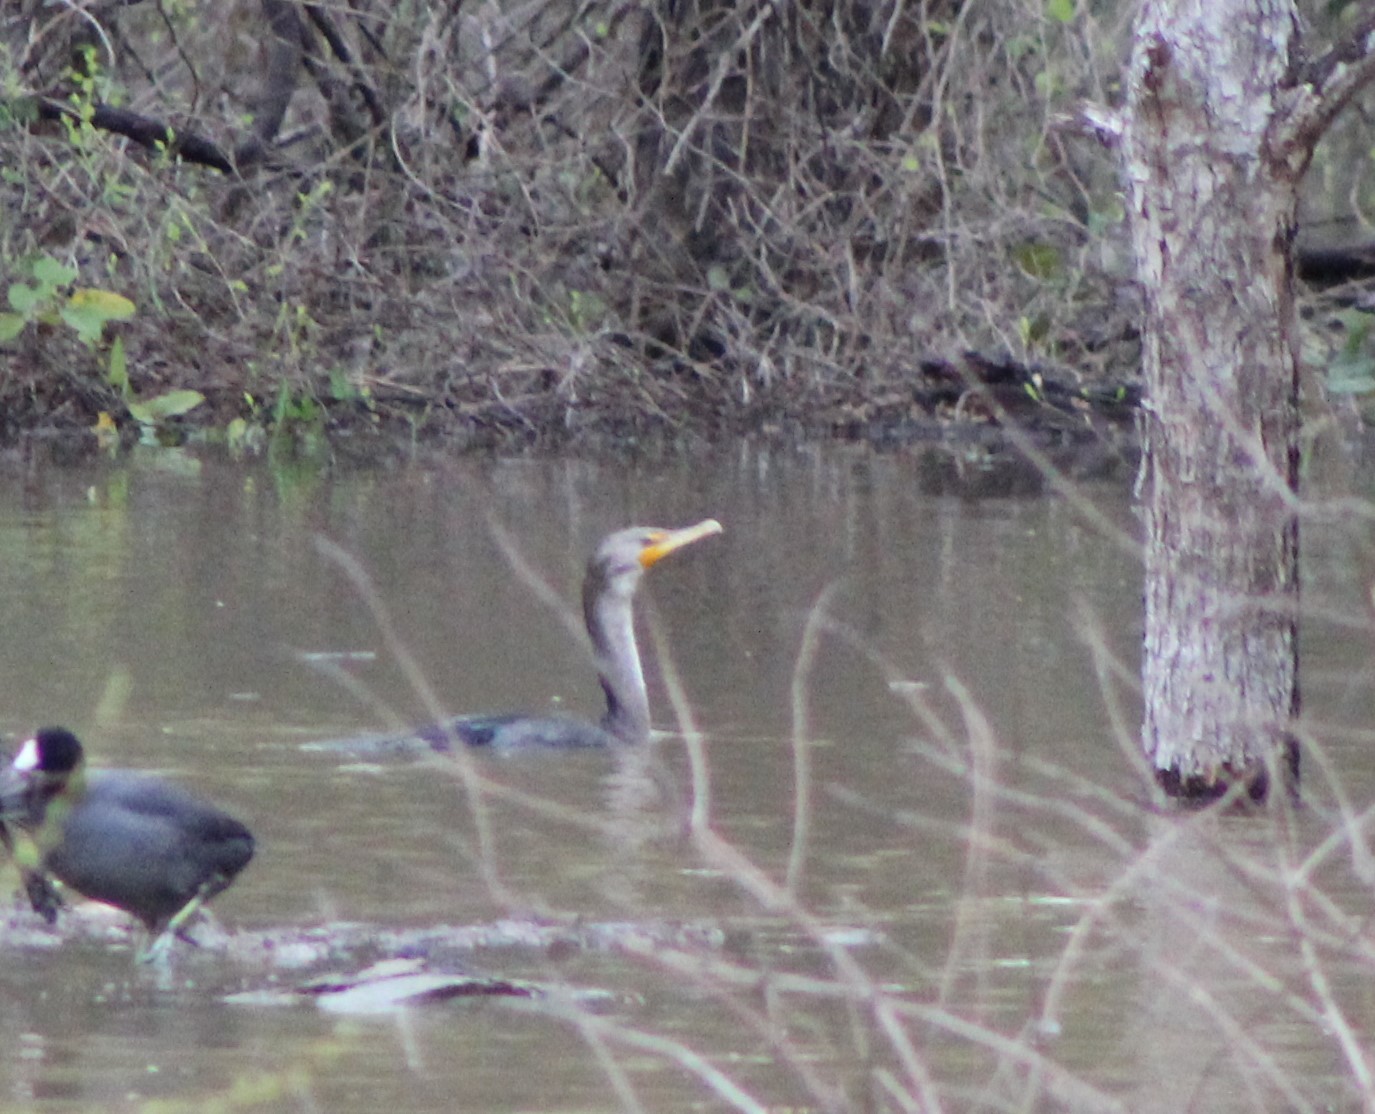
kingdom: Animalia
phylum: Chordata
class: Aves
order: Suliformes
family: Phalacrocoracidae
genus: Phalacrocorax
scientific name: Phalacrocorax auritus
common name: Double-crested cormorant
